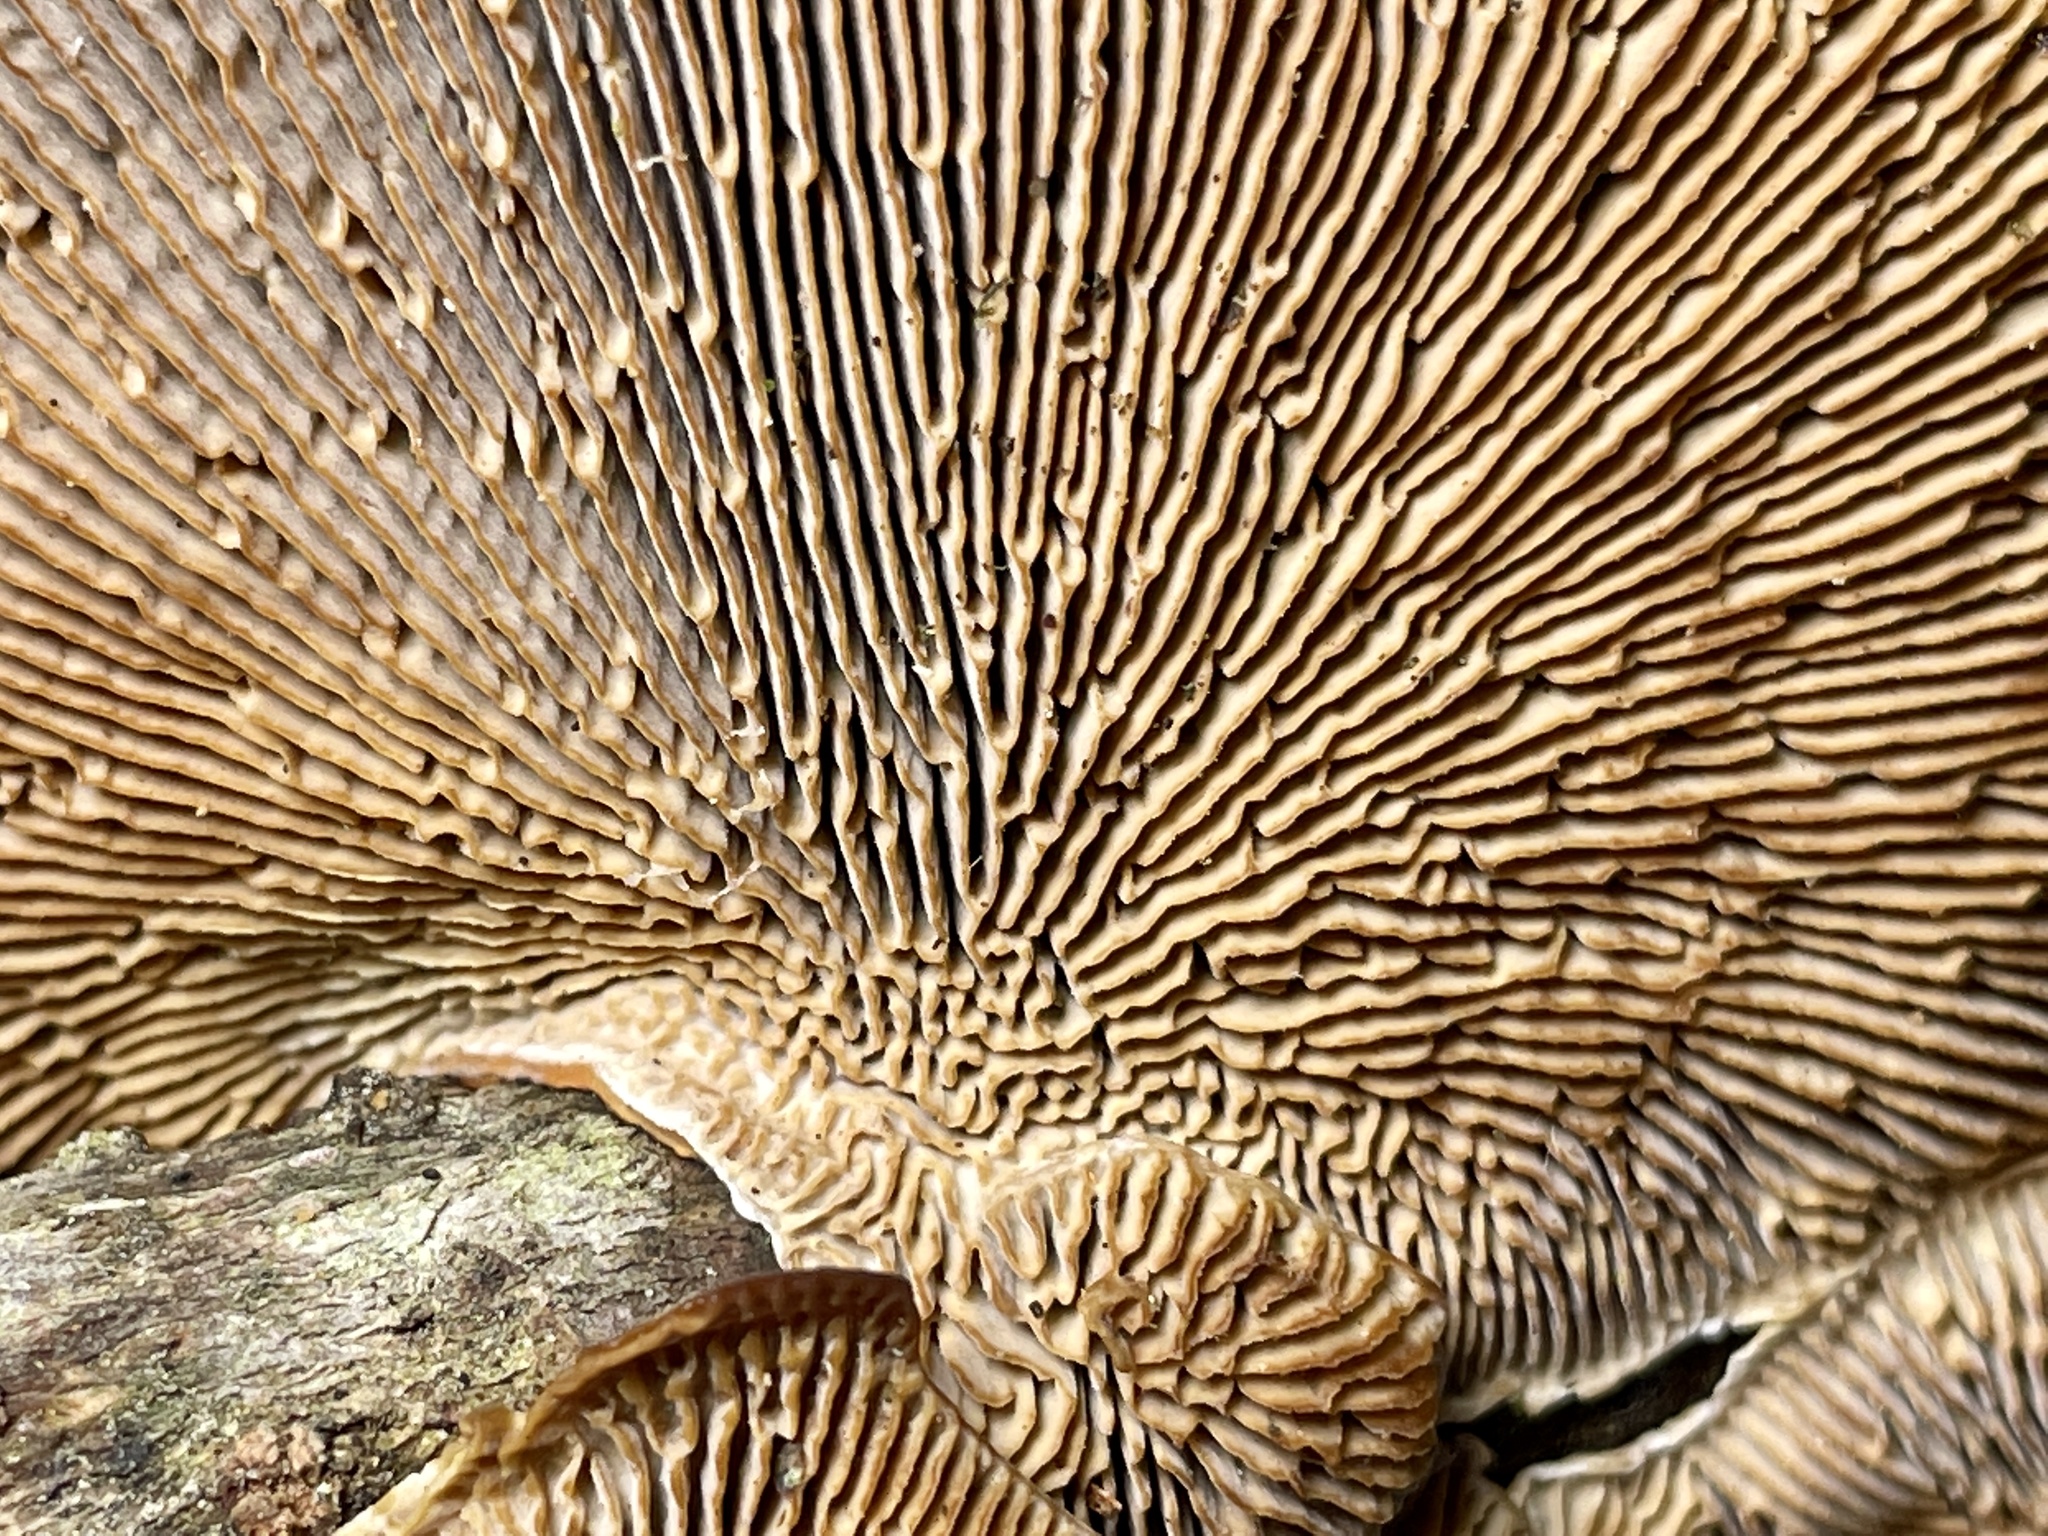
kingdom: Fungi
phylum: Basidiomycota
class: Agaricomycetes
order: Polyporales
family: Polyporaceae
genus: Daedaleopsis
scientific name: Daedaleopsis confragosa
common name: Blushing bracket
